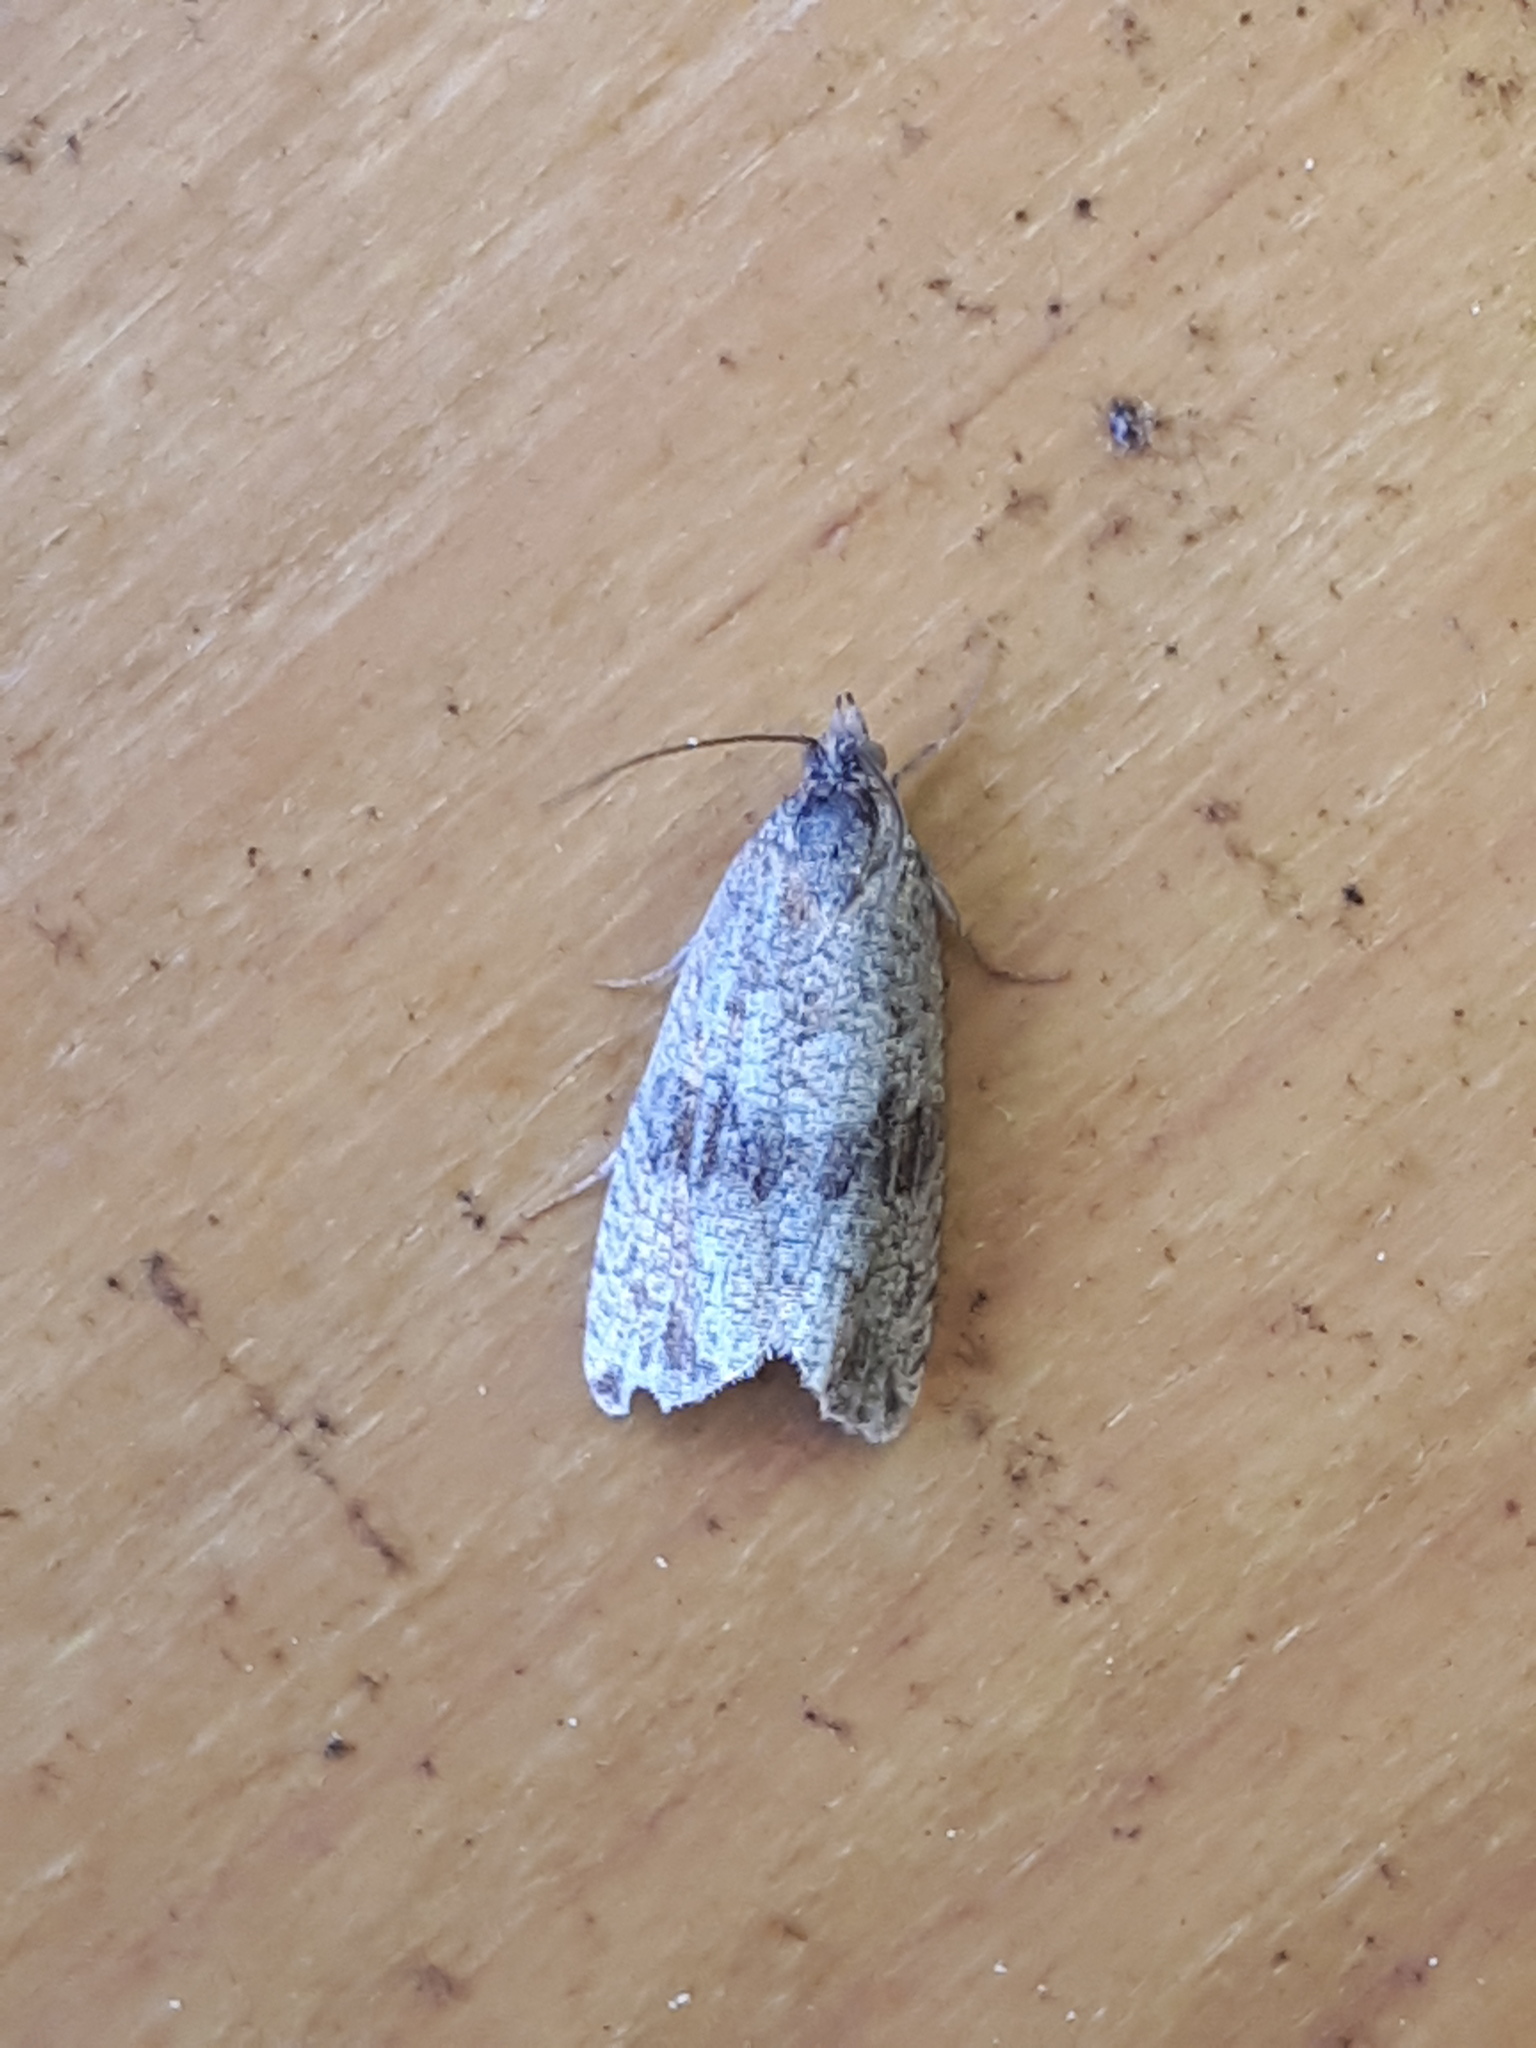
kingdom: Animalia
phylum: Arthropoda
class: Insecta
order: Lepidoptera
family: Tortricidae
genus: Celypha
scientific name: Celypha striana
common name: Barred marble
